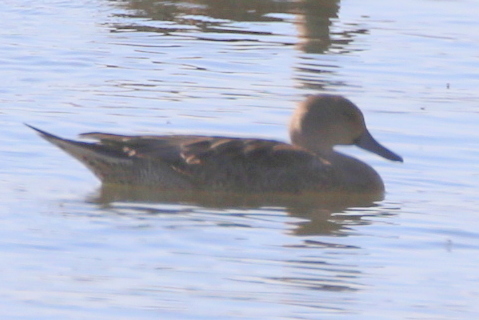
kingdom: Animalia
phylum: Chordata
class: Aves
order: Anseriformes
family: Anatidae
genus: Anas
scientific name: Anas acuta
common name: Northern pintail
